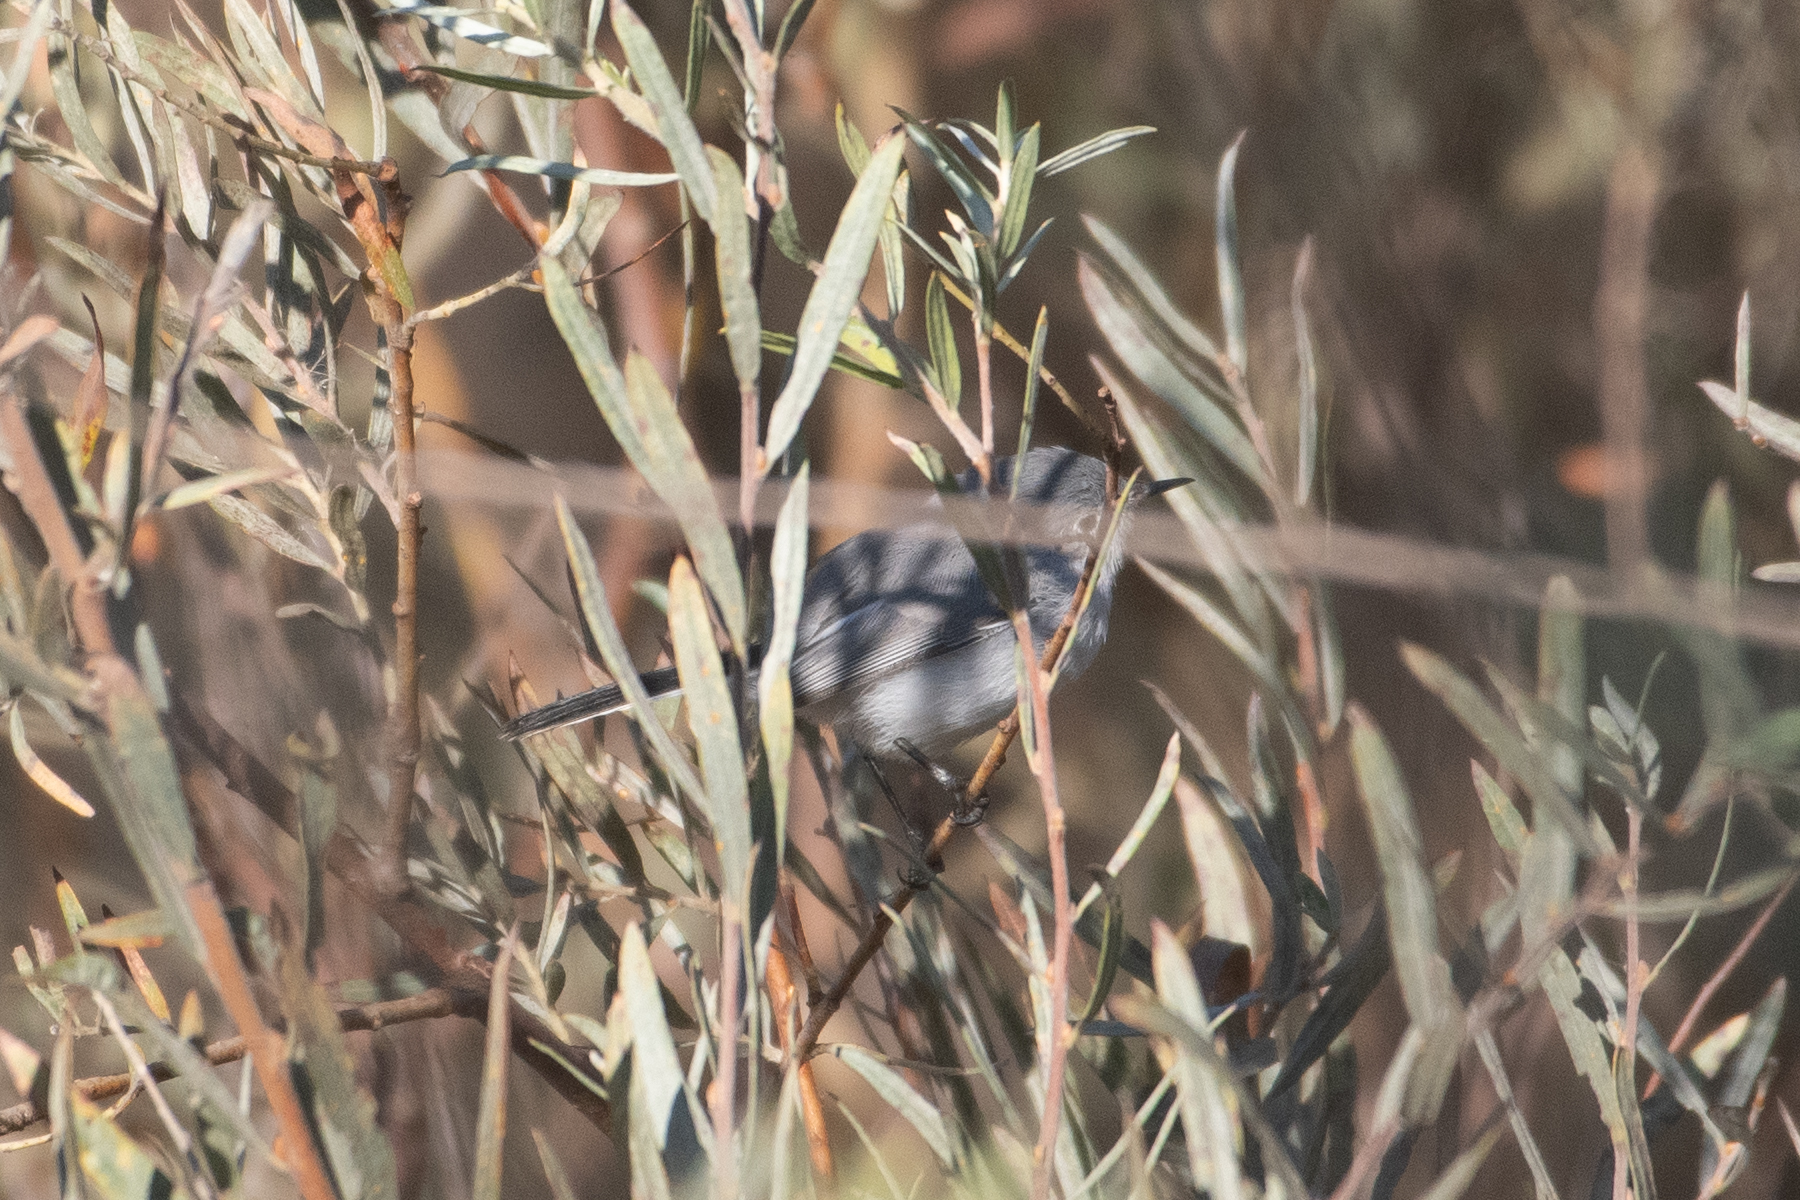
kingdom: Animalia
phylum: Chordata
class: Aves
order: Passeriformes
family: Polioptilidae
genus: Polioptila
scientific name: Polioptila caerulea
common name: Blue-gray gnatcatcher
